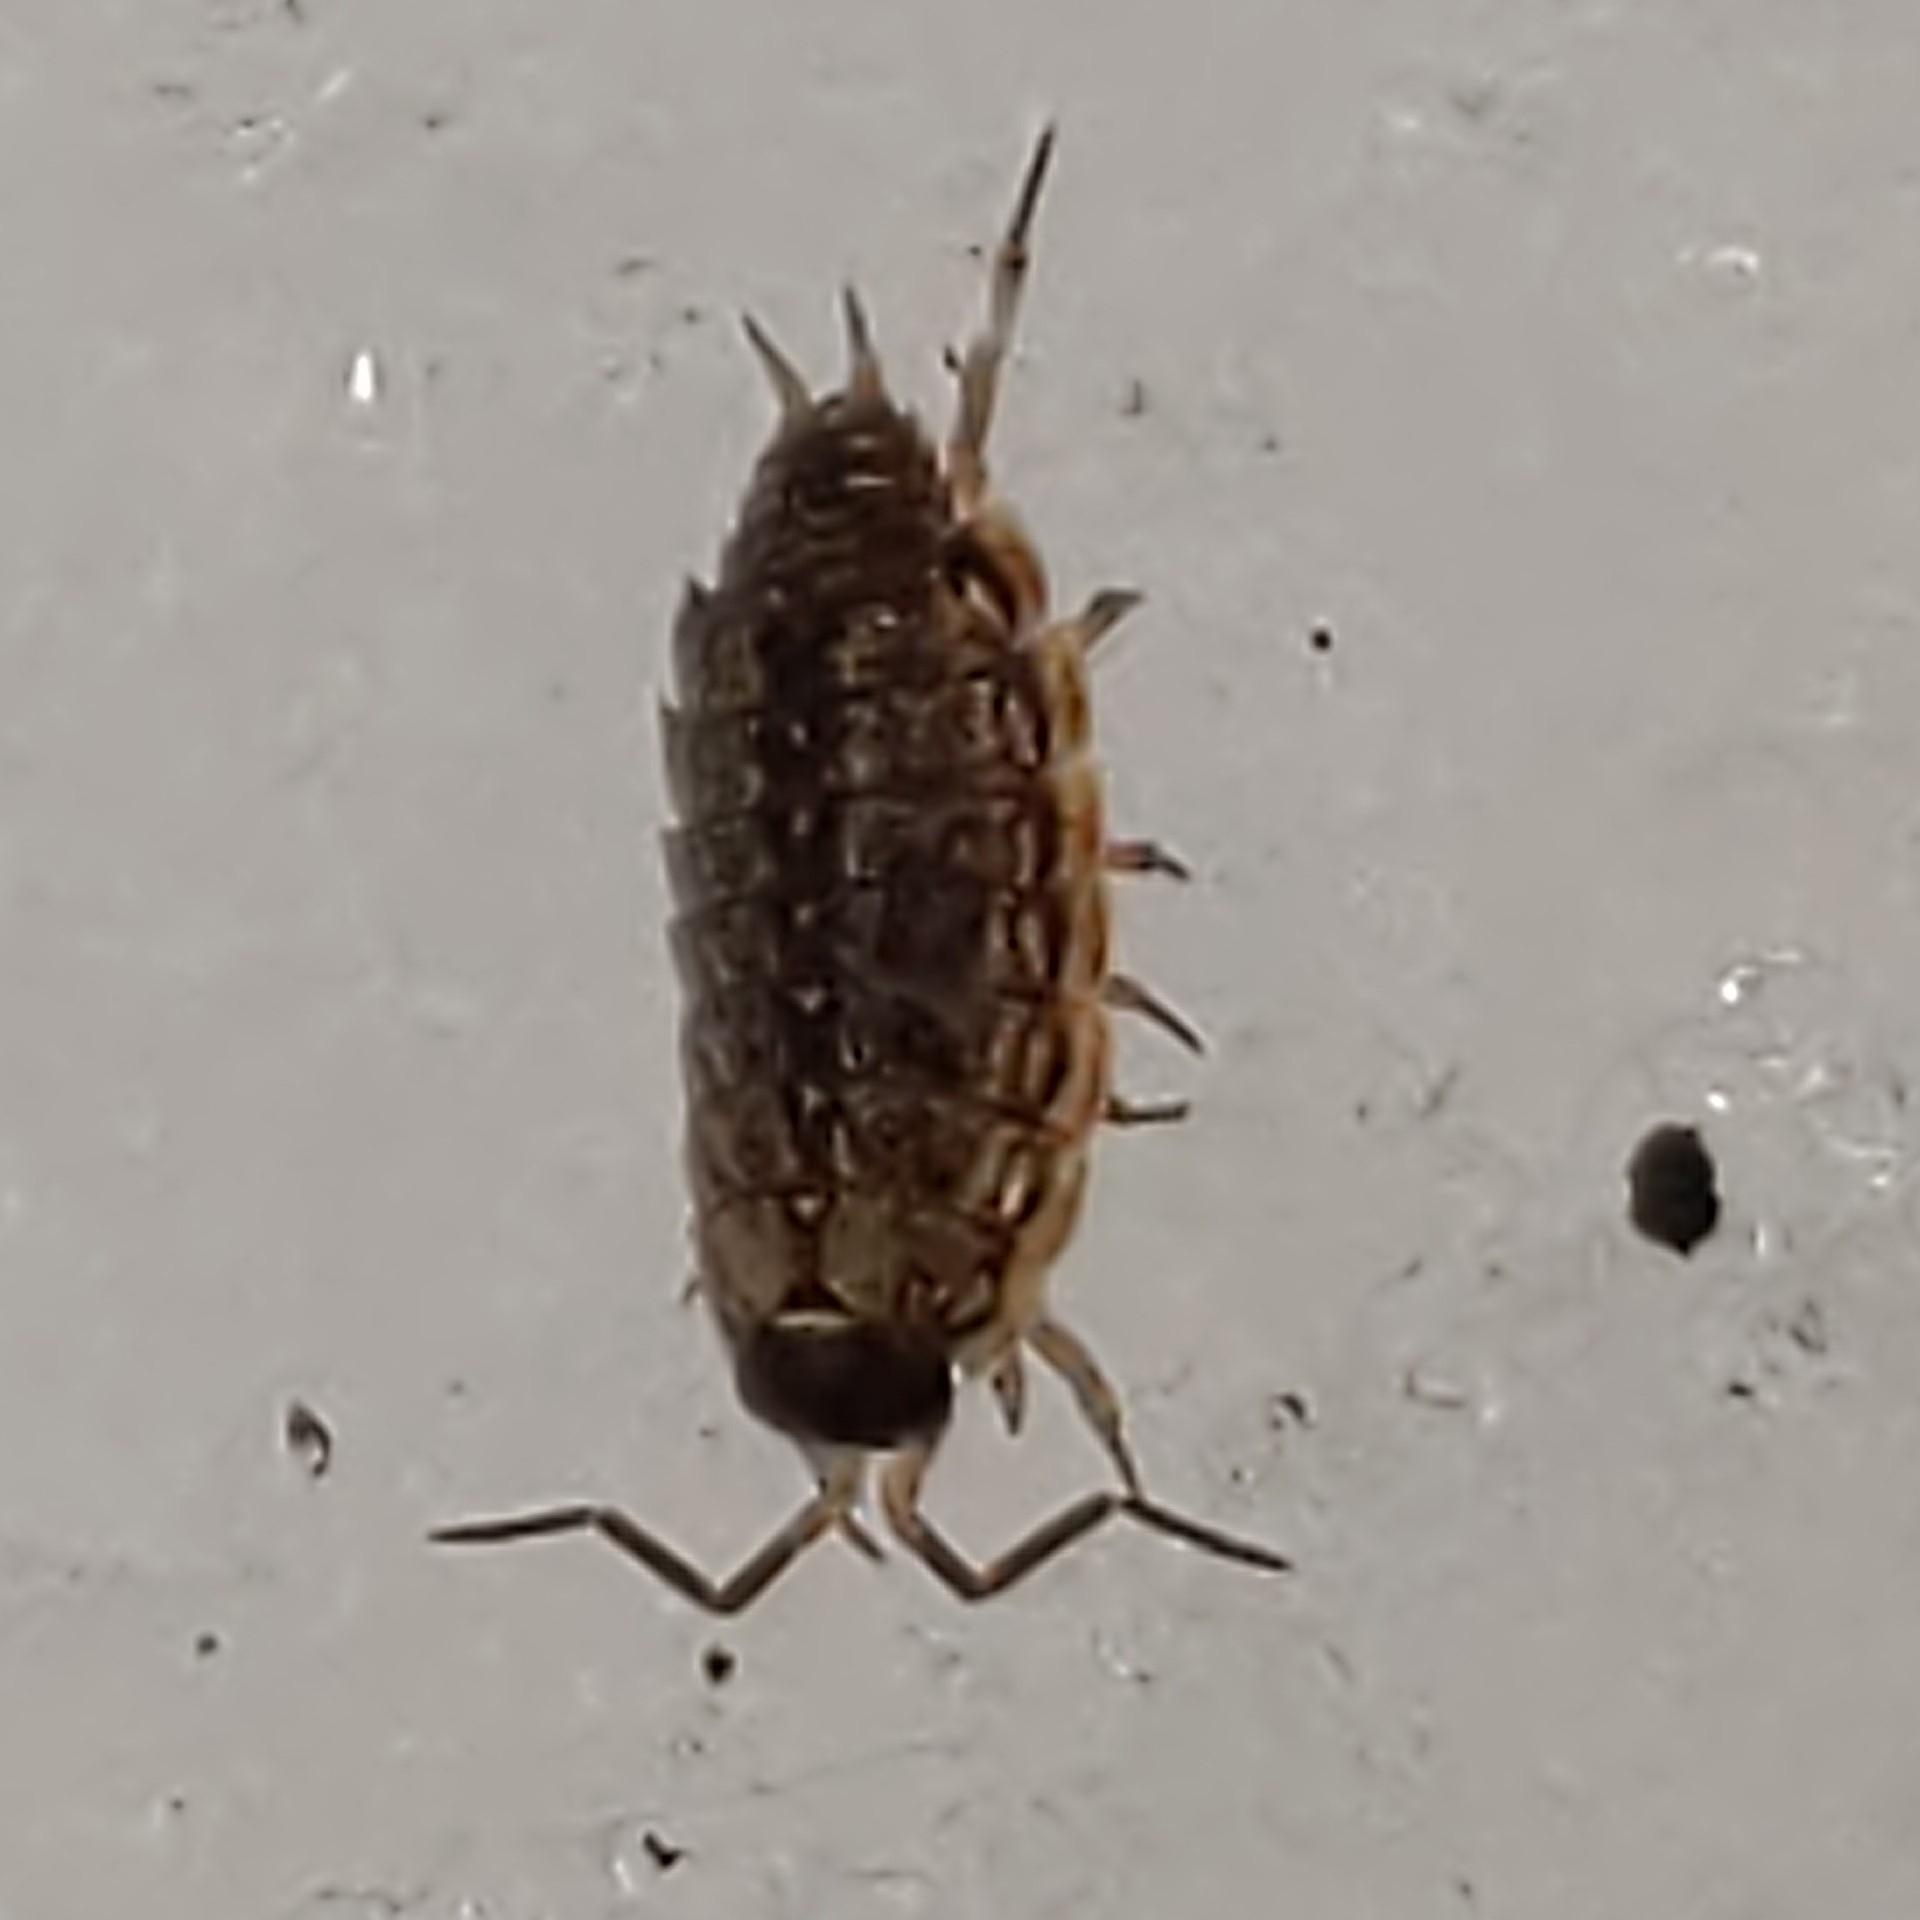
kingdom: Animalia
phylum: Arthropoda
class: Malacostraca
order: Isopoda
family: Philosciidae
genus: Philoscia
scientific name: Philoscia muscorum
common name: Common striped woodlouse
